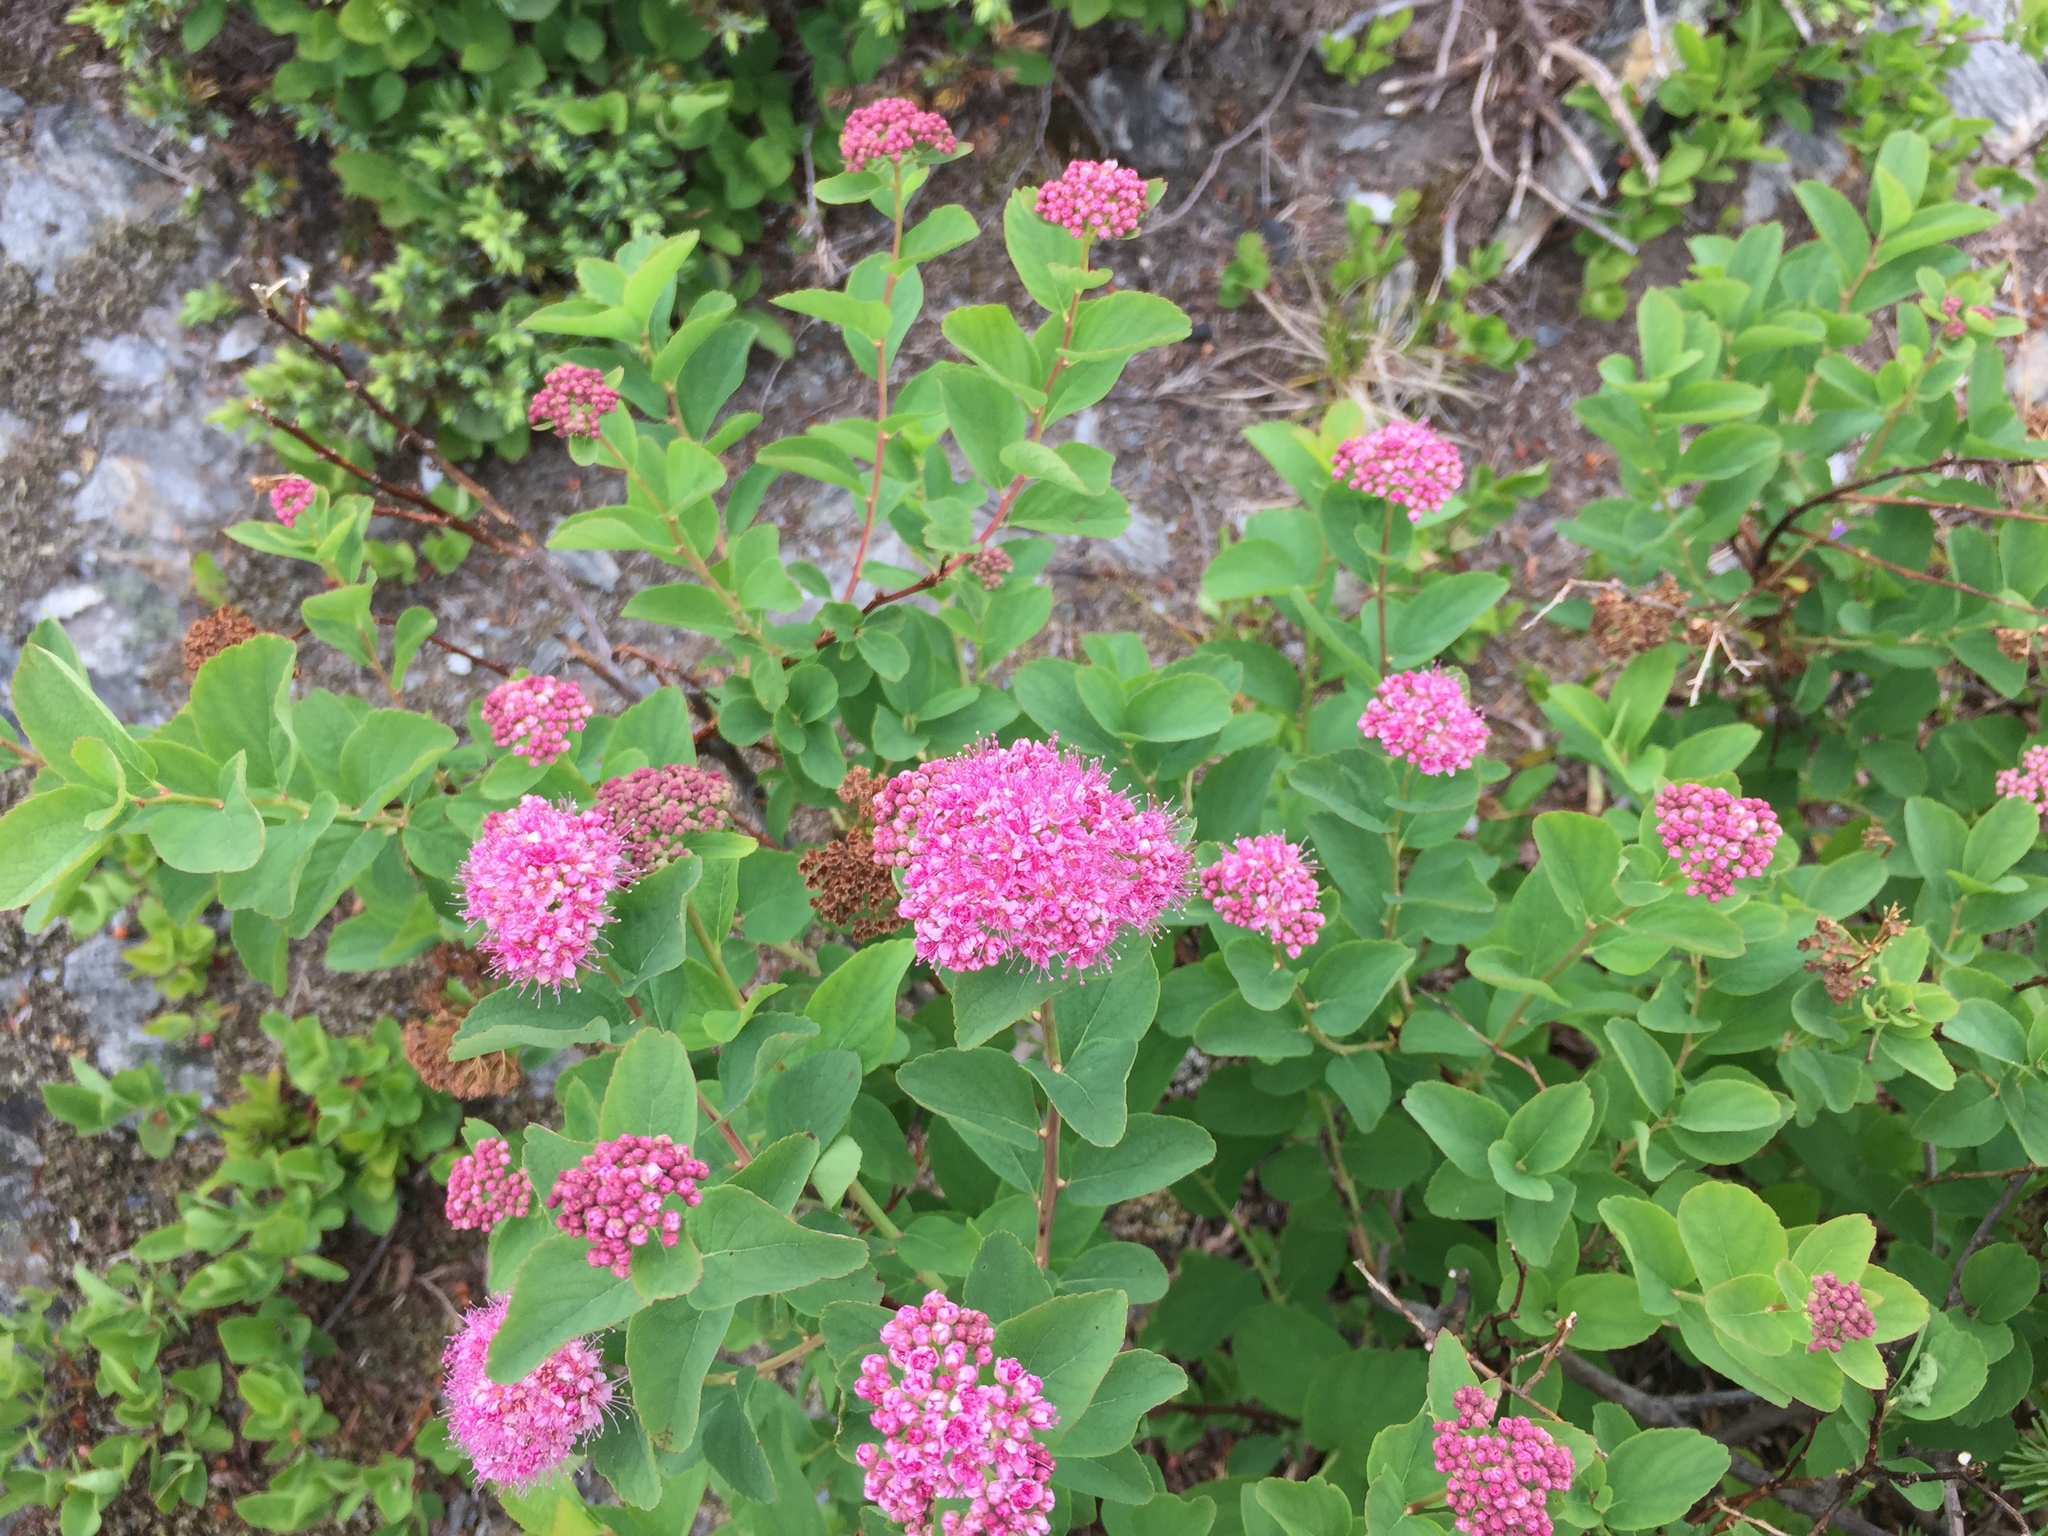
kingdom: Plantae
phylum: Tracheophyta
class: Magnoliopsida
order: Rosales
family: Rosaceae
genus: Spiraea
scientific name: Spiraea splendens
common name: Subalpine meadowsweet
